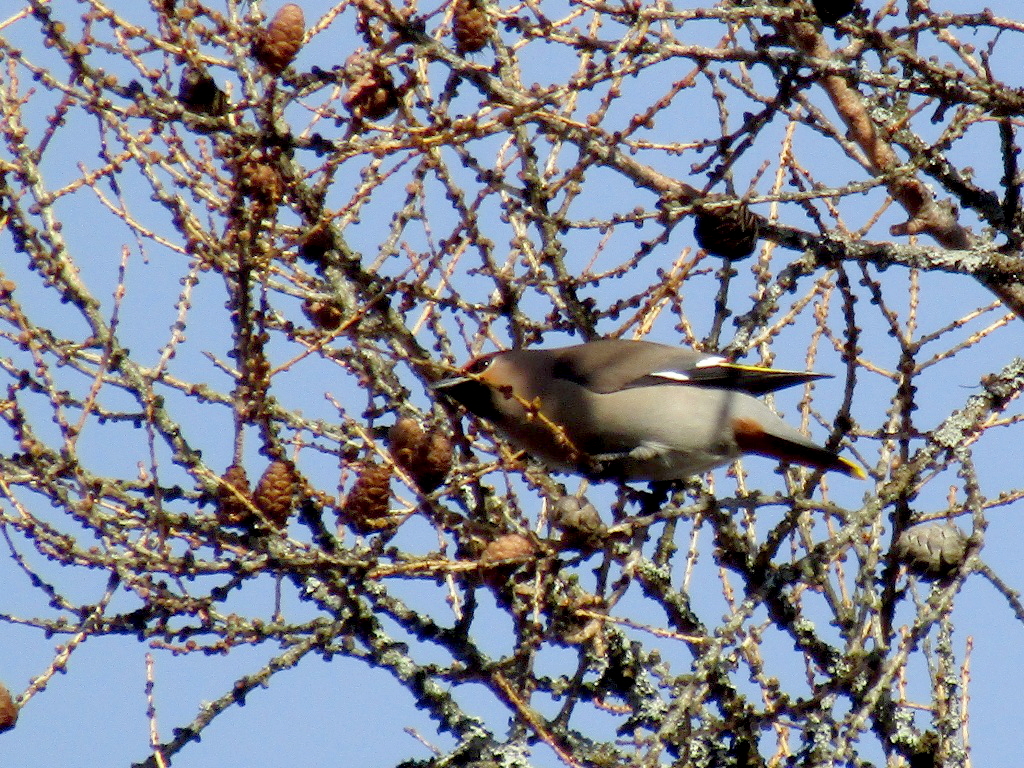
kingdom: Animalia
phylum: Chordata
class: Aves
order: Passeriformes
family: Bombycillidae
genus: Bombycilla
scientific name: Bombycilla garrulus
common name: Bohemian waxwing
